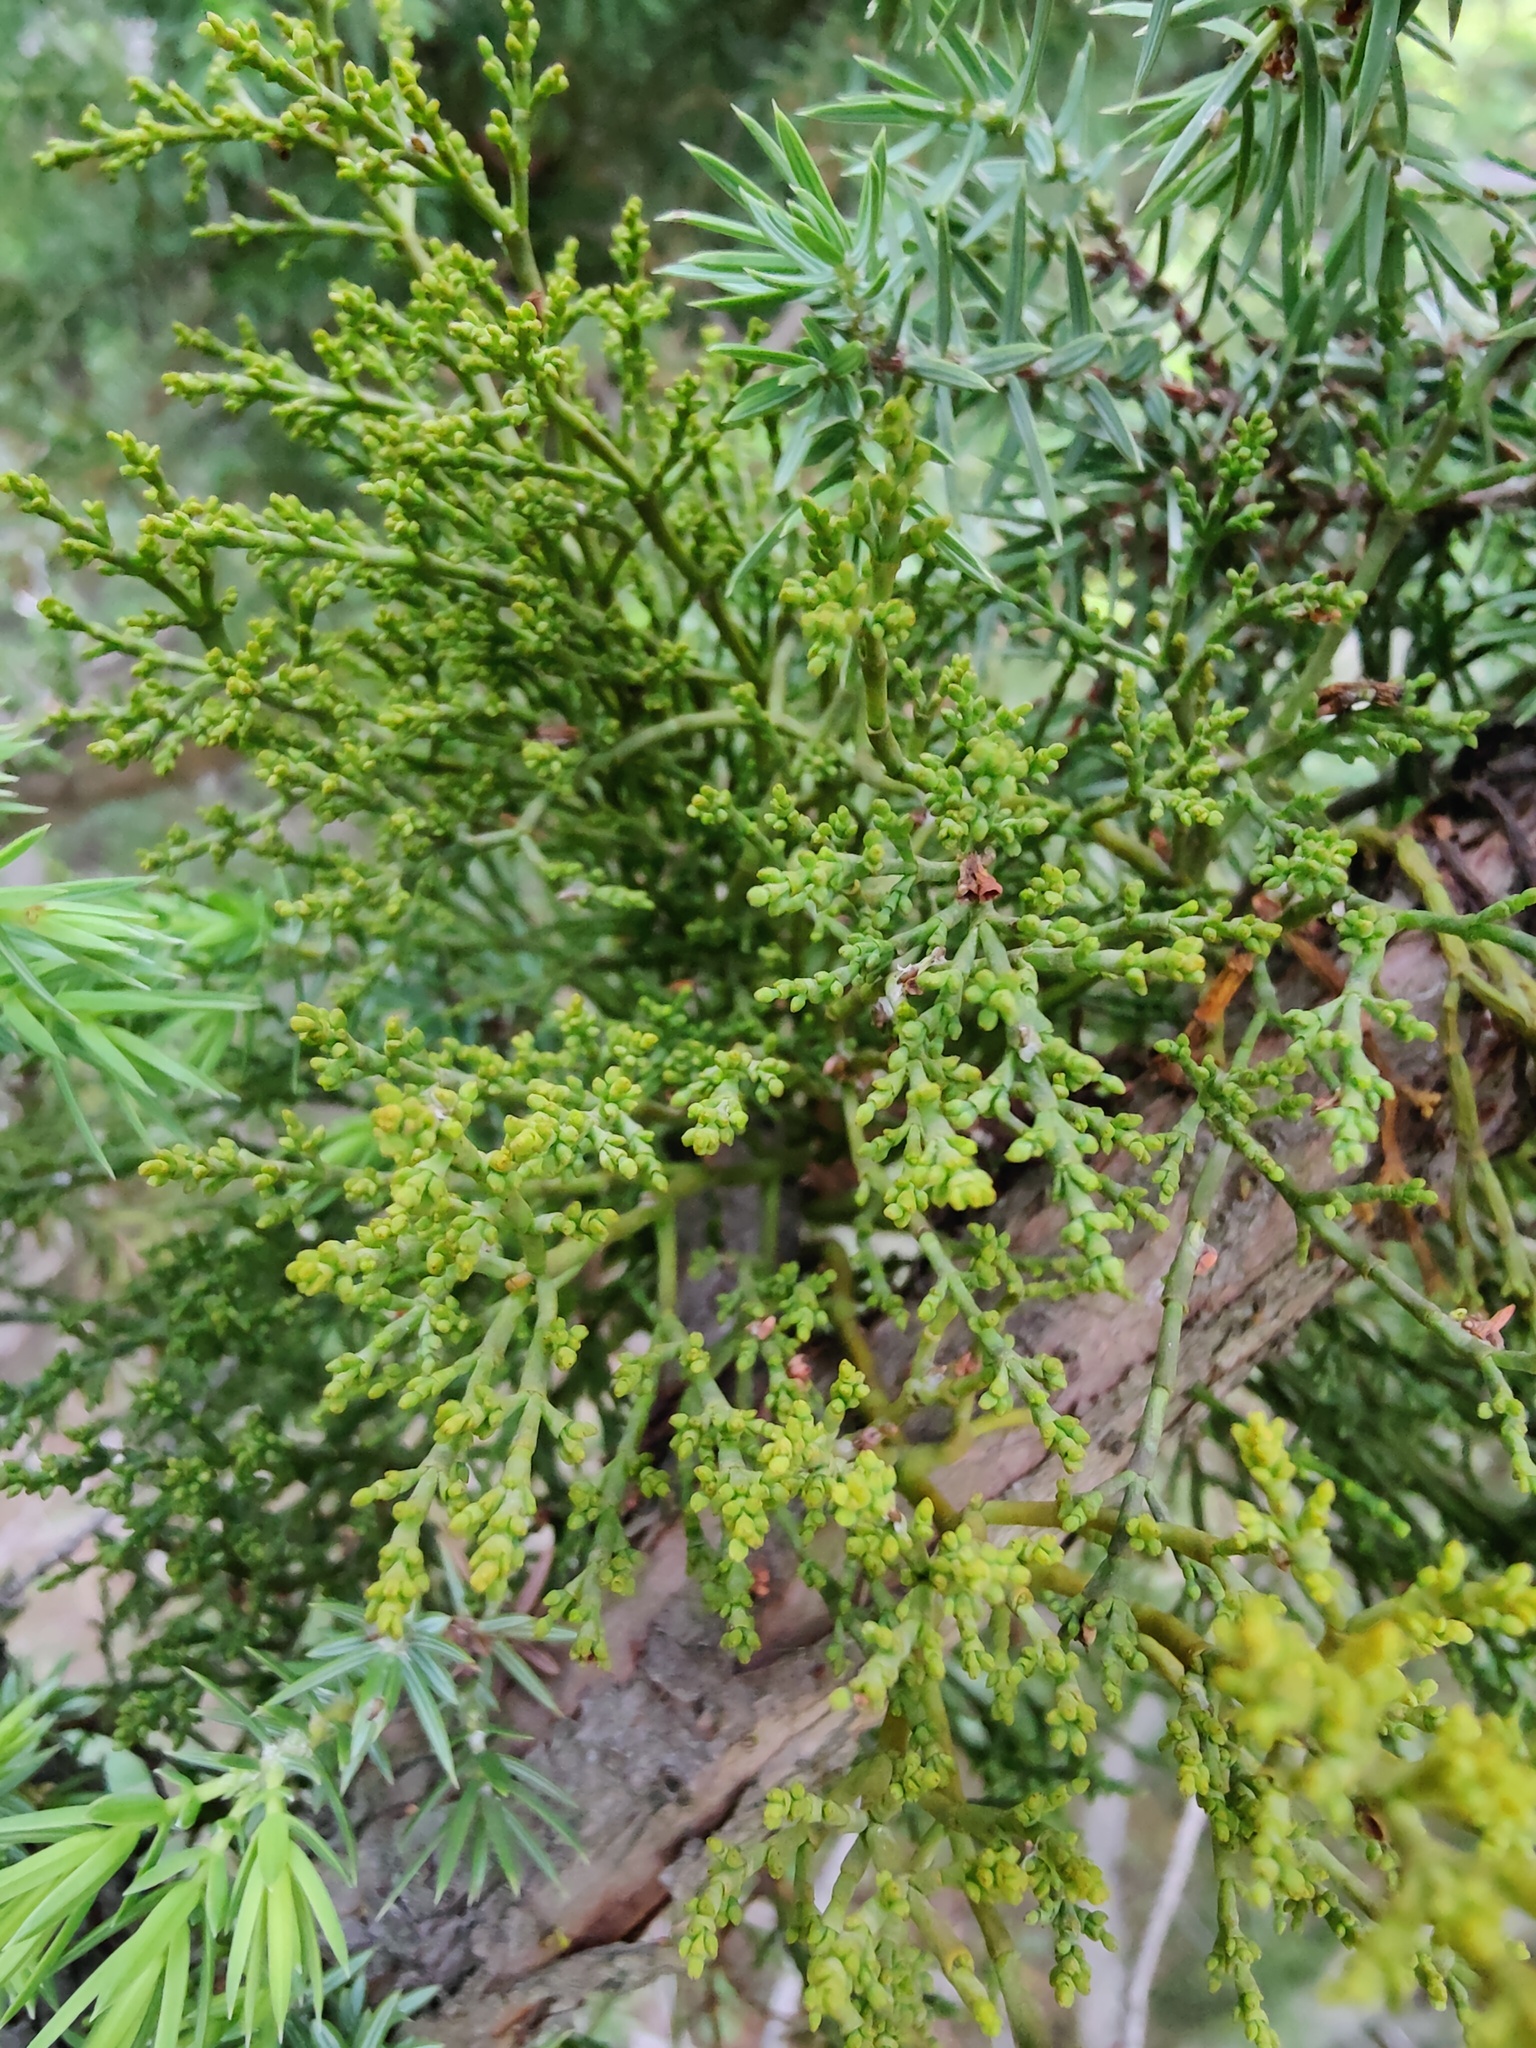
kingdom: Plantae
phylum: Tracheophyta
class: Magnoliopsida
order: Santalales
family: Viscaceae
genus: Arceuthobium
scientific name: Arceuthobium oxycedri
